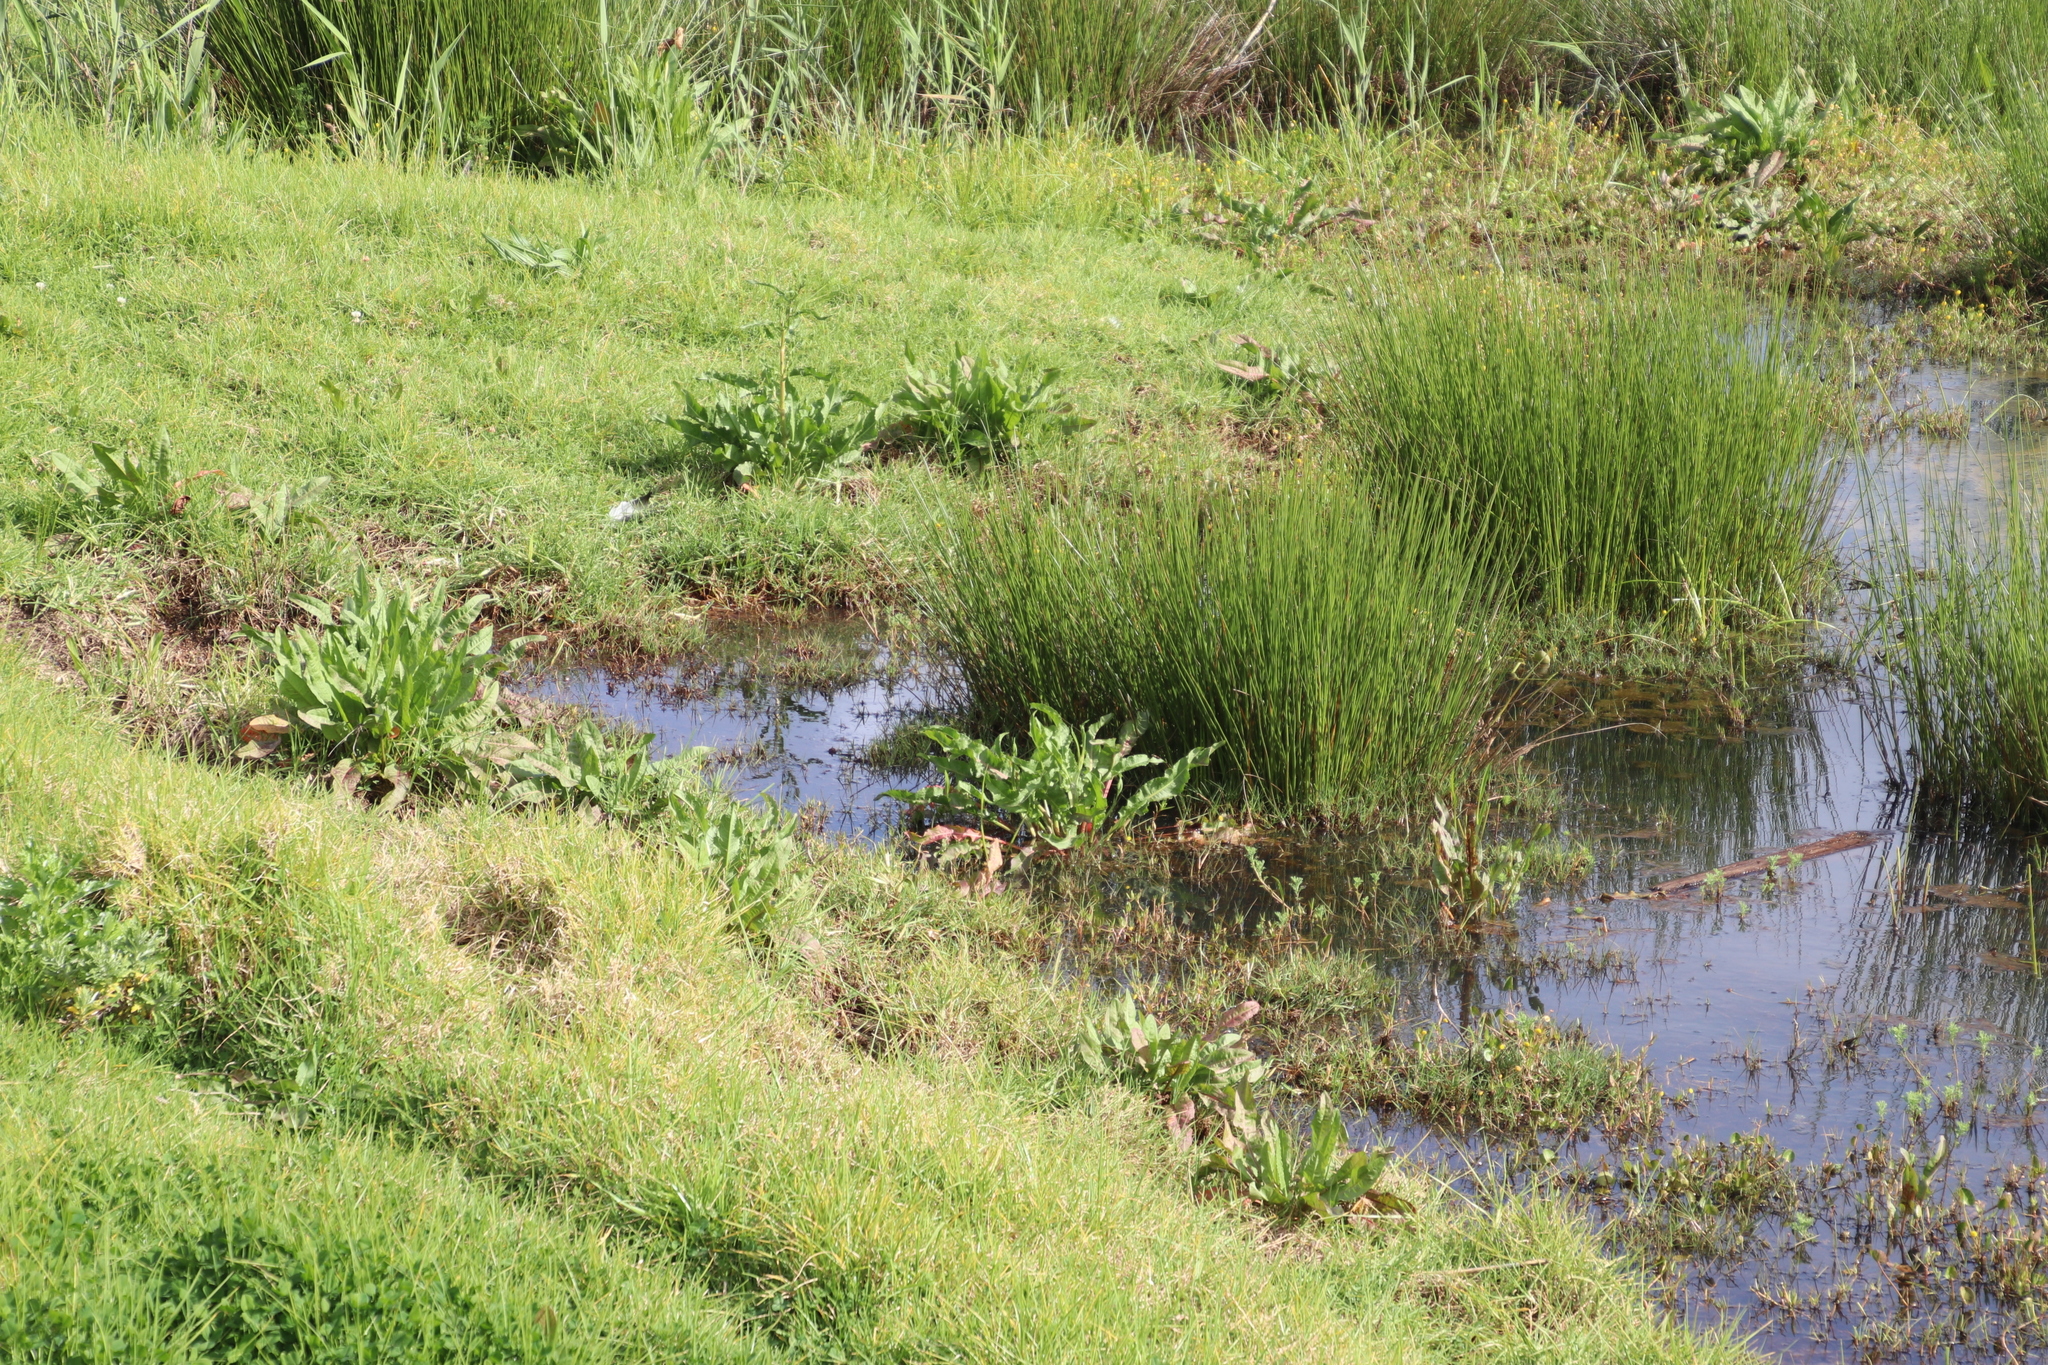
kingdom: Plantae
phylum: Tracheophyta
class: Magnoliopsida
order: Caryophyllales
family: Polygonaceae
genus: Rumex
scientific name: Rumex crispus
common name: Curled dock
